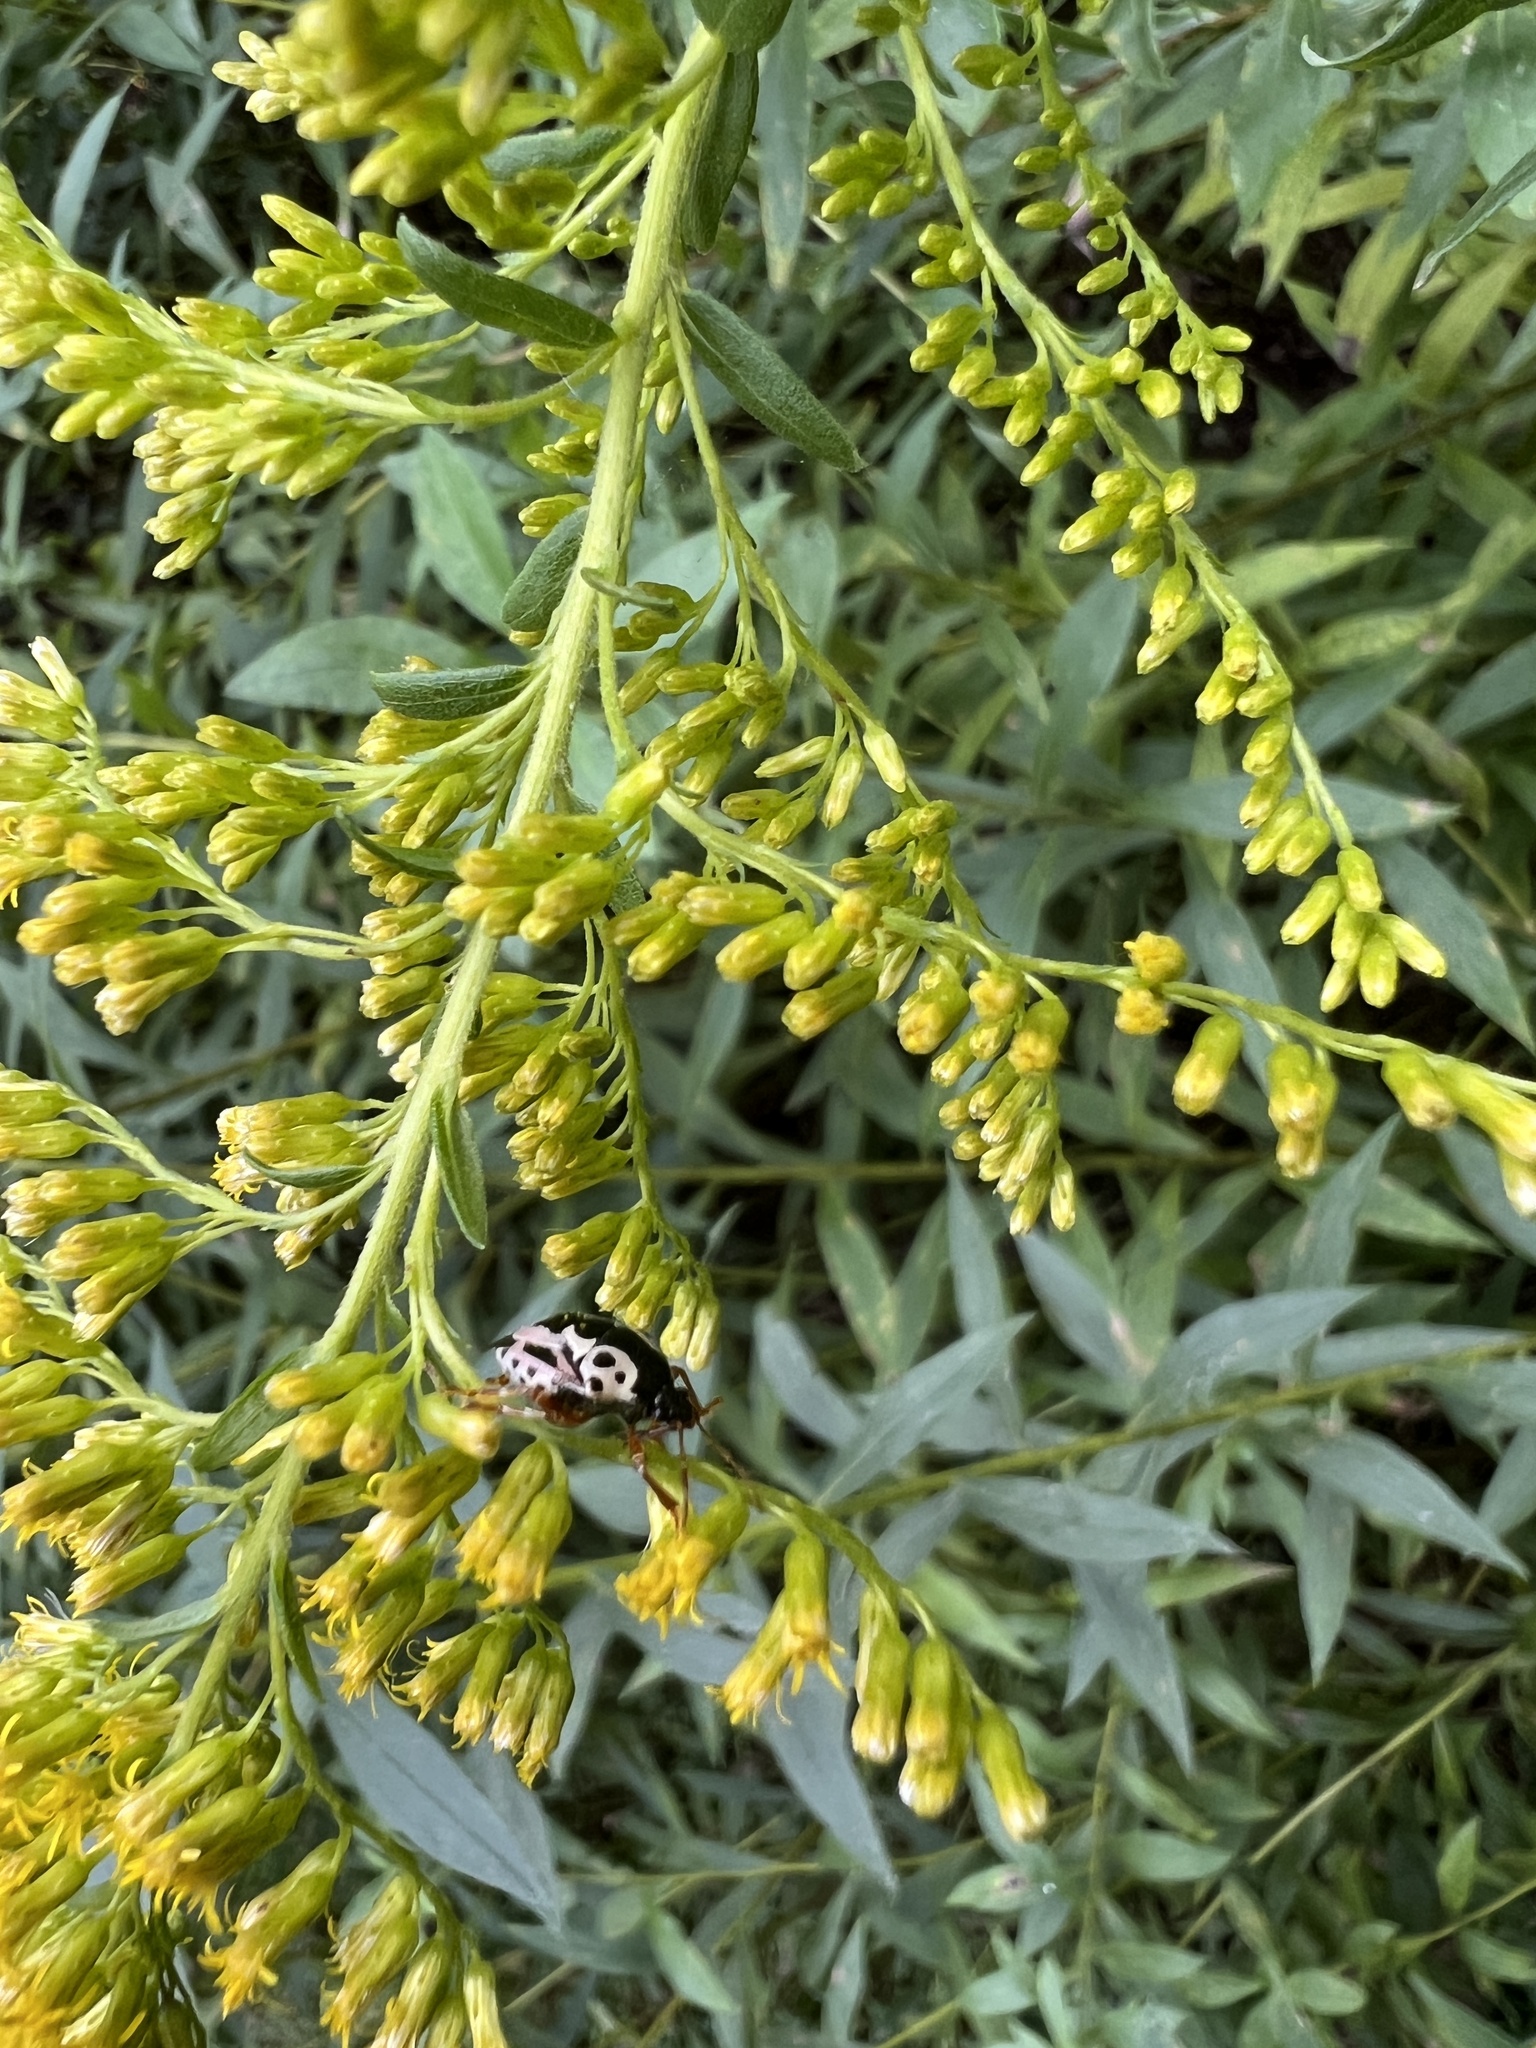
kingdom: Animalia
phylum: Arthropoda
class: Insecta
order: Hemiptera
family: Pentatomidae
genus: Stiretrus
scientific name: Stiretrus anchorago
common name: Anchor stink bug
